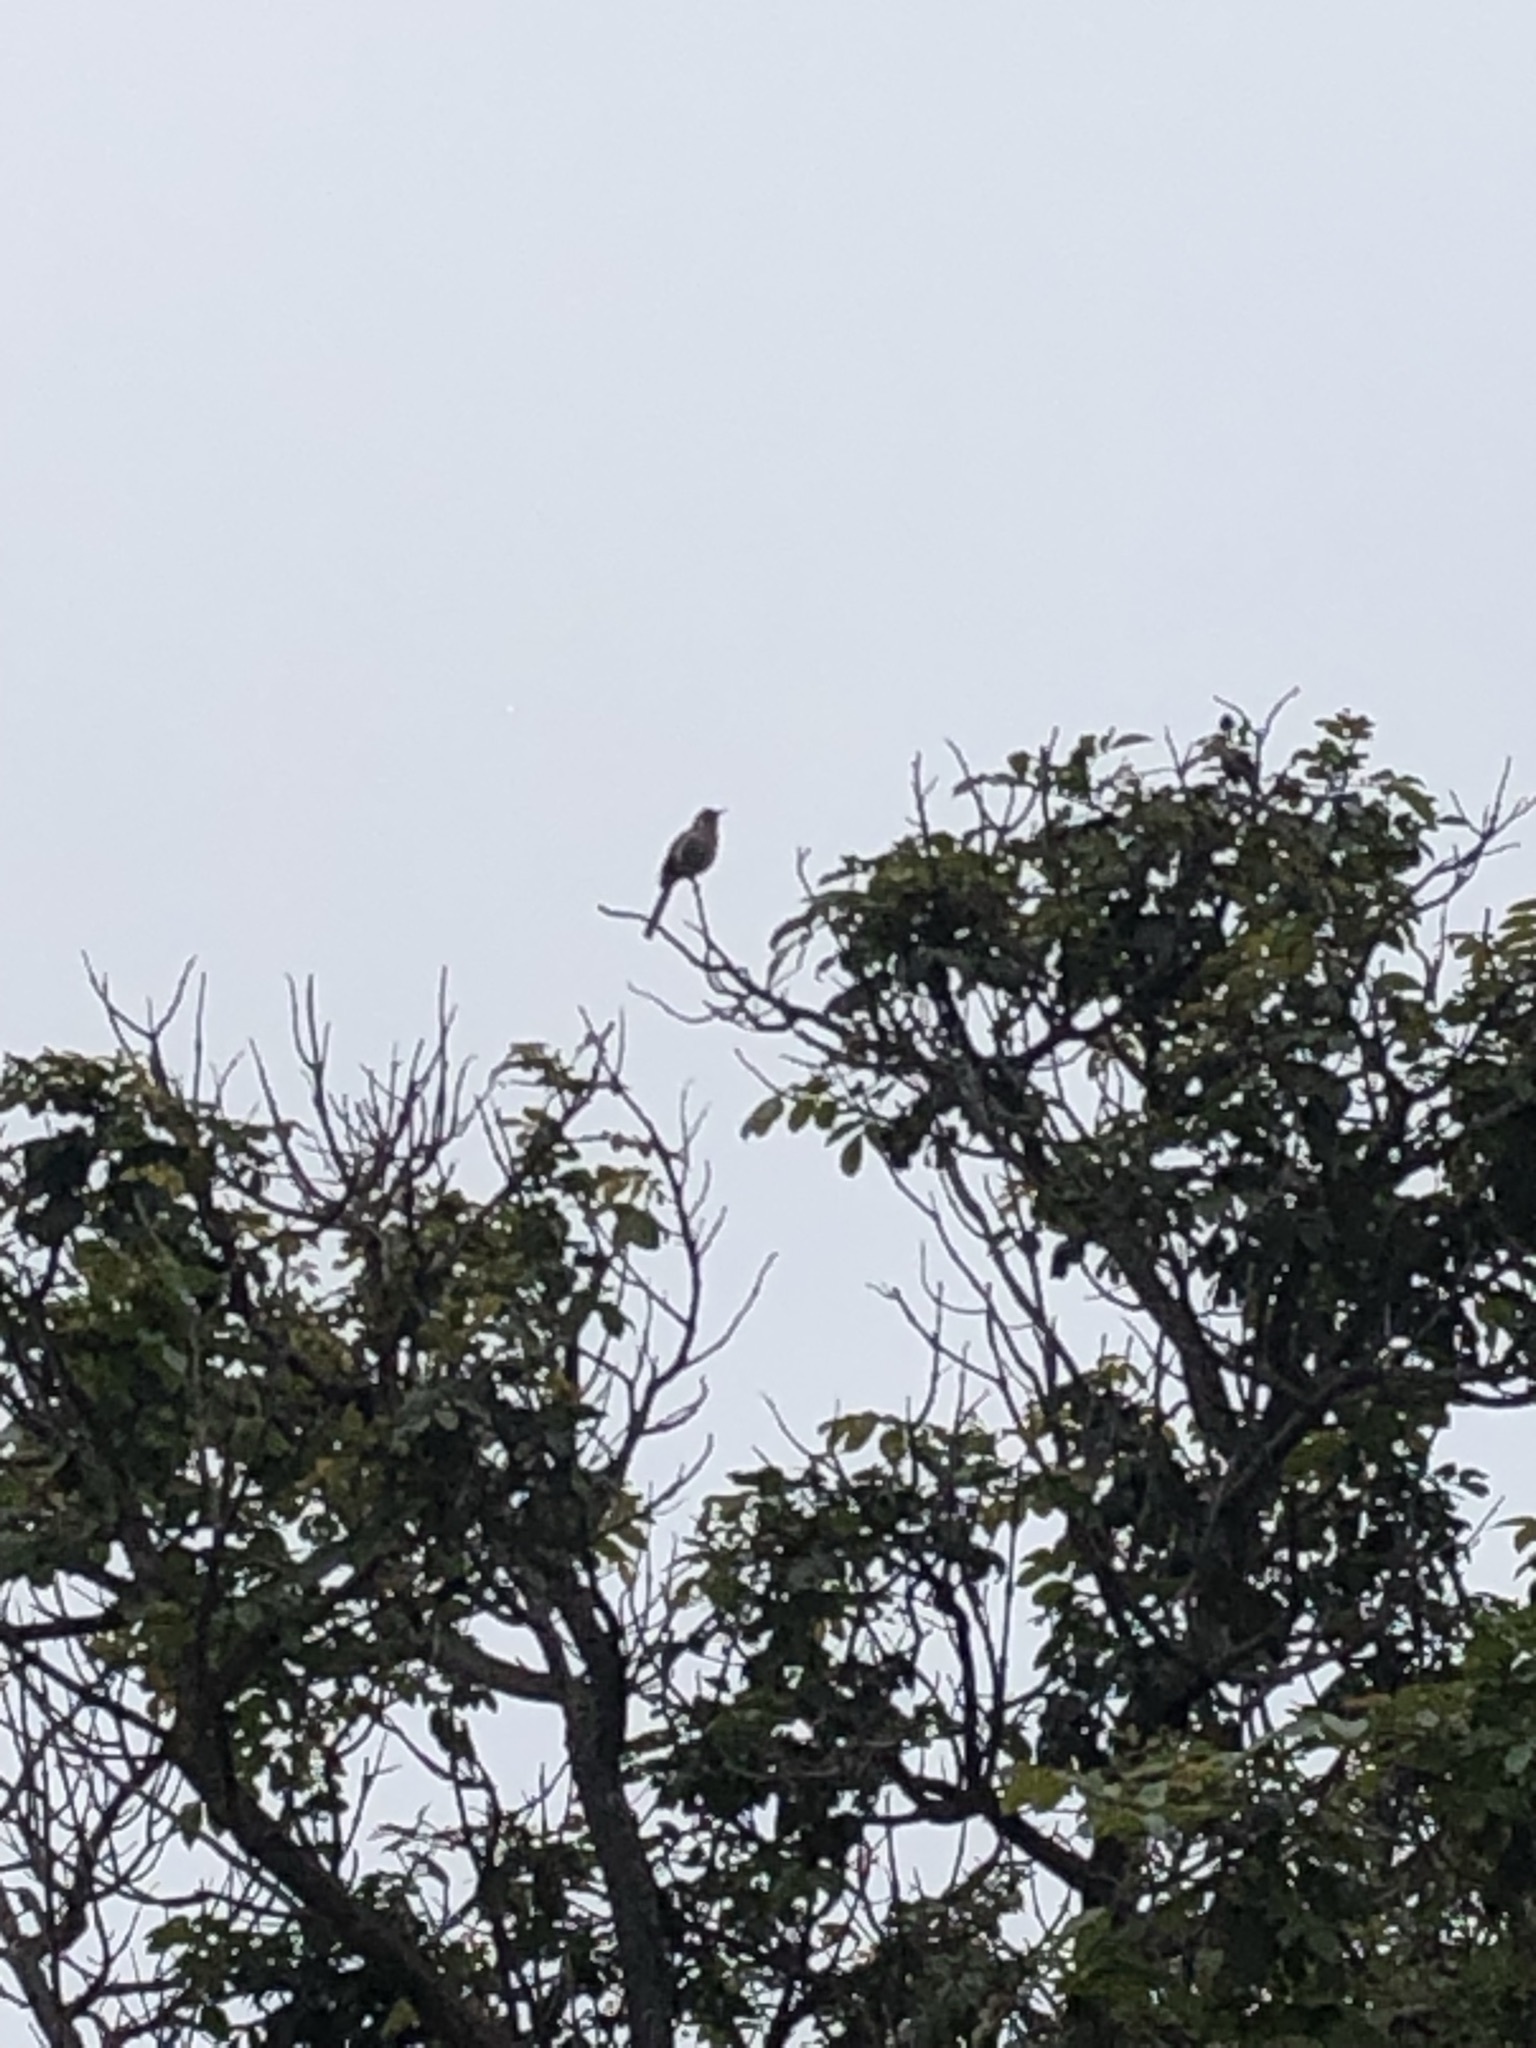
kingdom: Animalia
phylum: Chordata
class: Aves
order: Passeriformes
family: Mimidae
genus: Mimus
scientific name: Mimus longicaudatus
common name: Long-tailed mockingbird
